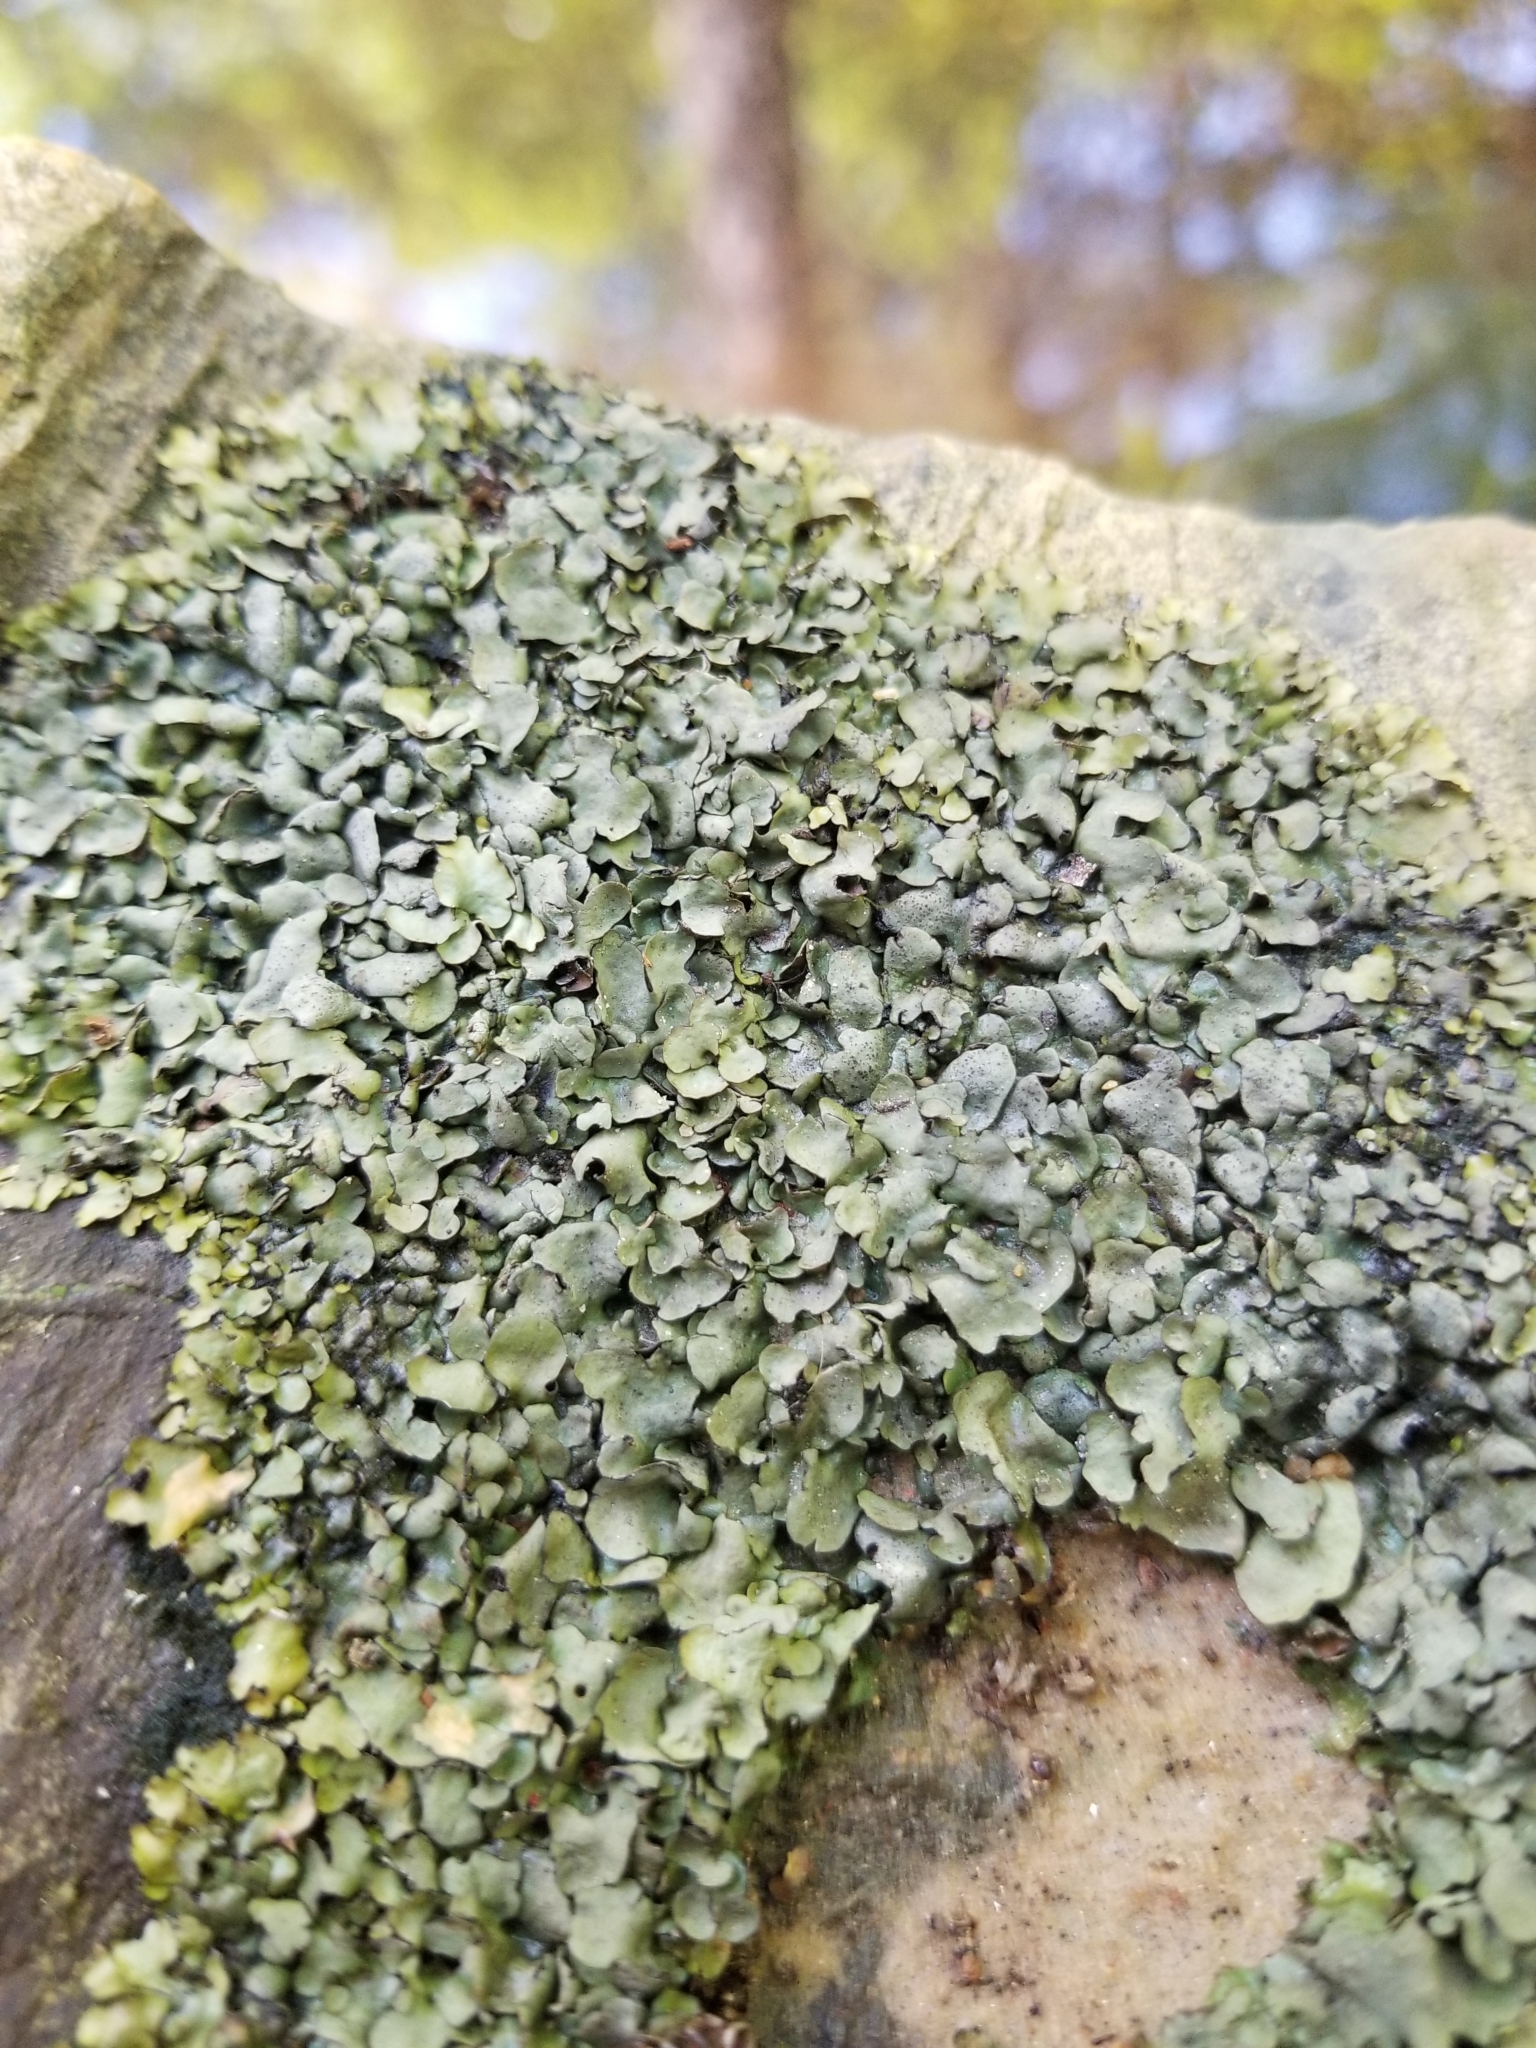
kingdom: Fungi
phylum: Ascomycota
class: Eurotiomycetes
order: Verrucariales
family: Verrucariaceae
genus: Dermatocarpon
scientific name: Dermatocarpon luridum
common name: Brook stippleback lichen
